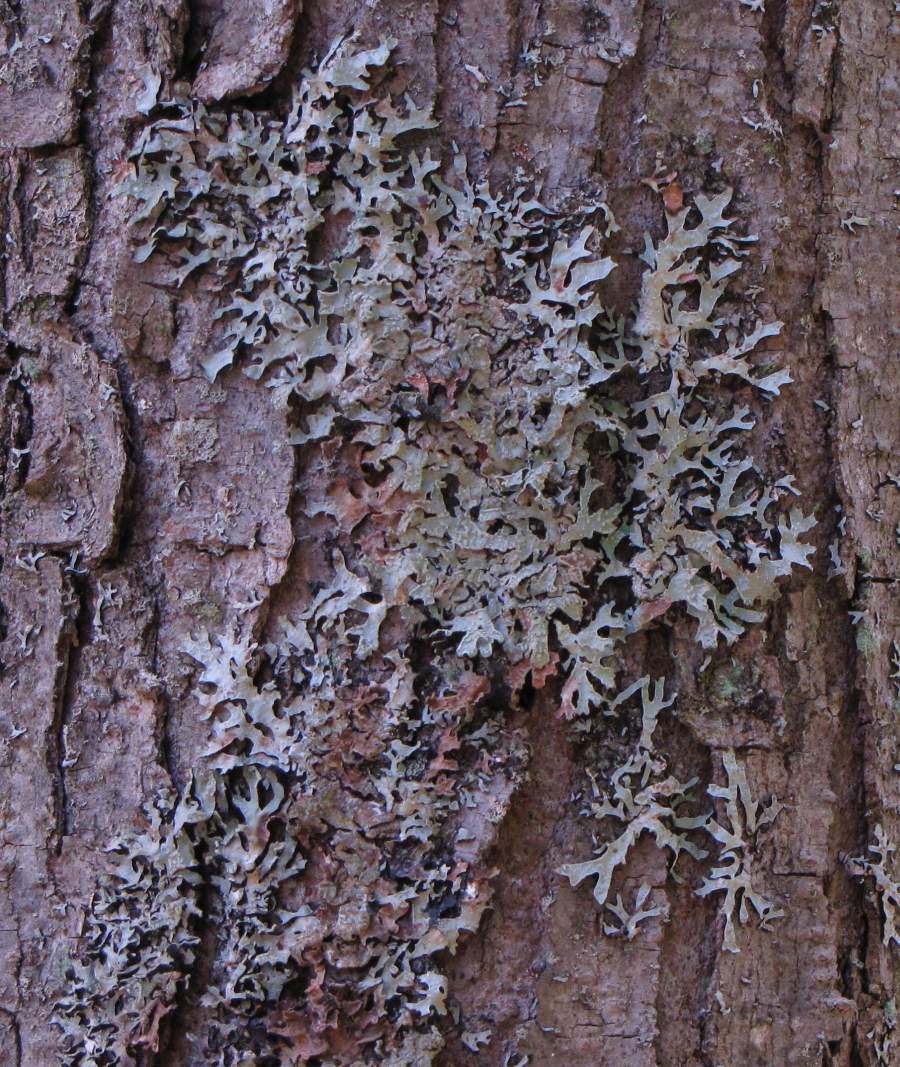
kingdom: Fungi
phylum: Ascomycota
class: Lecanoromycetes
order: Lecanorales
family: Parmeliaceae
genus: Parmelia
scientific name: Parmelia sulcata
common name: Netted shield lichen
